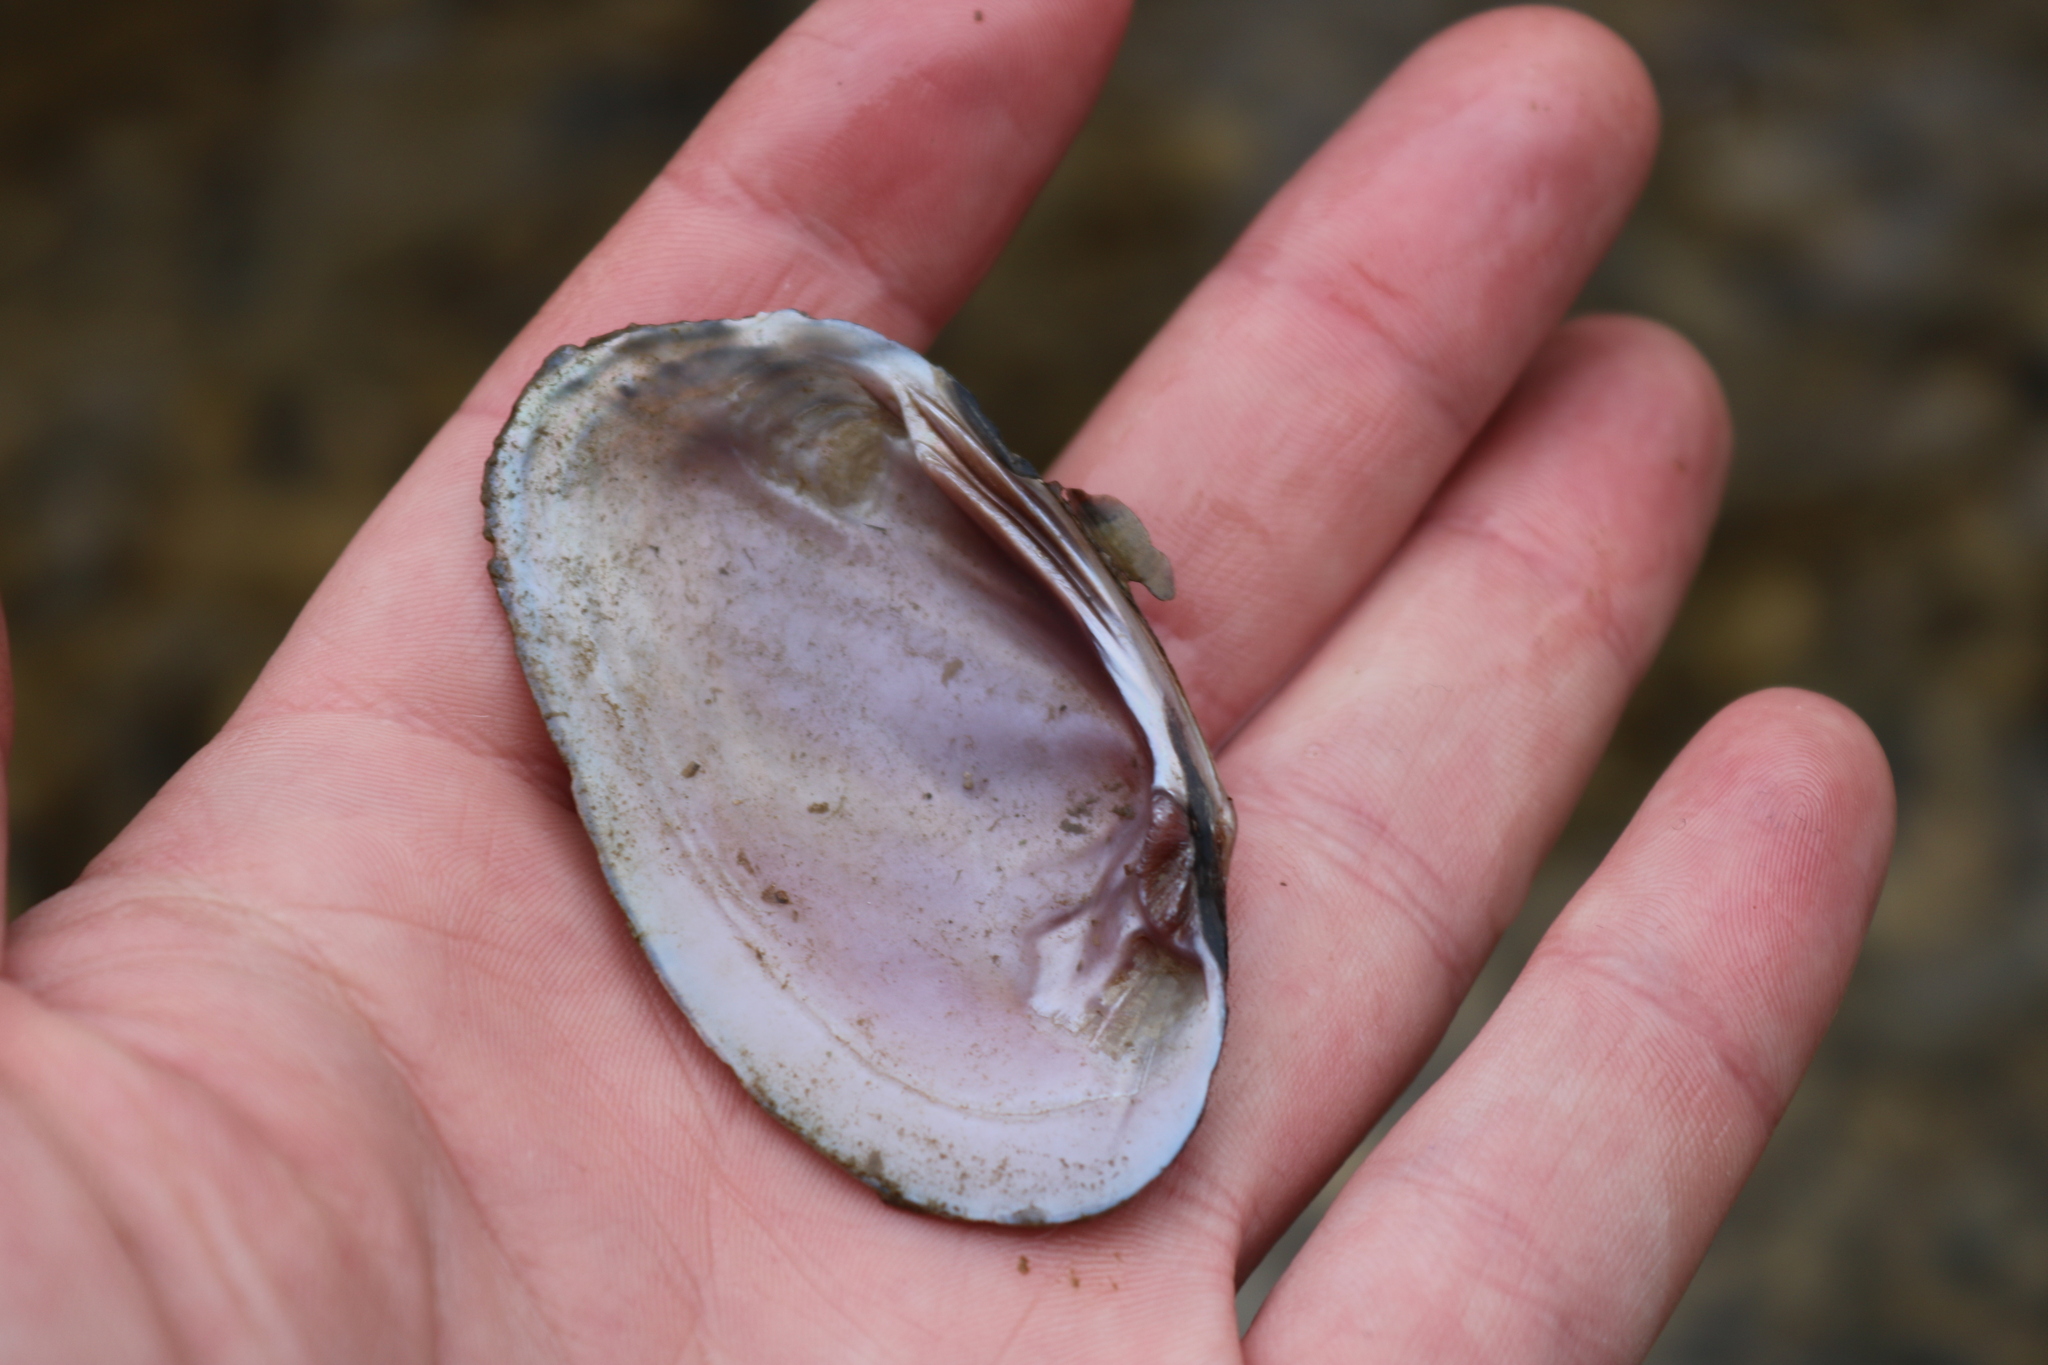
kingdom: Animalia
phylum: Mollusca
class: Bivalvia
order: Unionida
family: Unionidae
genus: Eurynia
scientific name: Eurynia dilatata
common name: Spike
